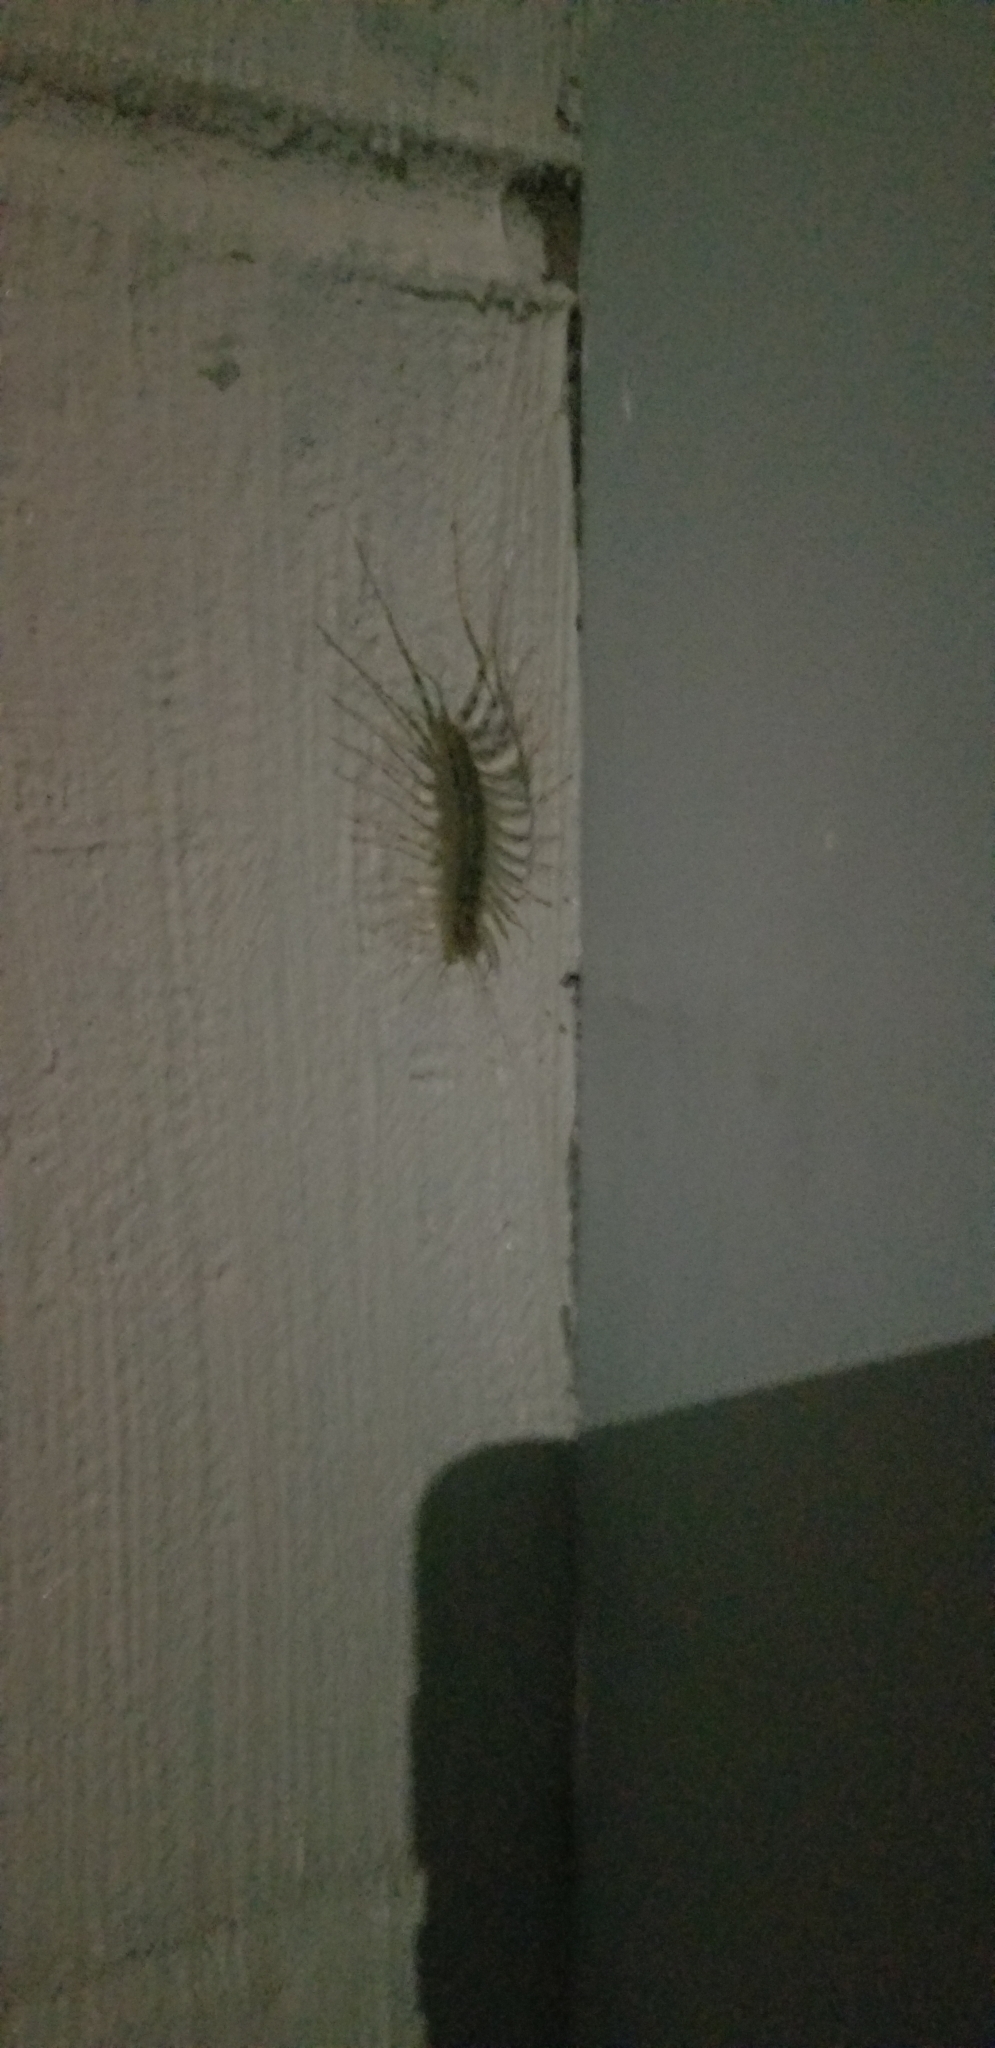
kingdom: Animalia
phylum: Arthropoda
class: Chilopoda
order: Scutigeromorpha
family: Scutigeridae
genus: Scutigera
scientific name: Scutigera coleoptrata
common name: House centipede
